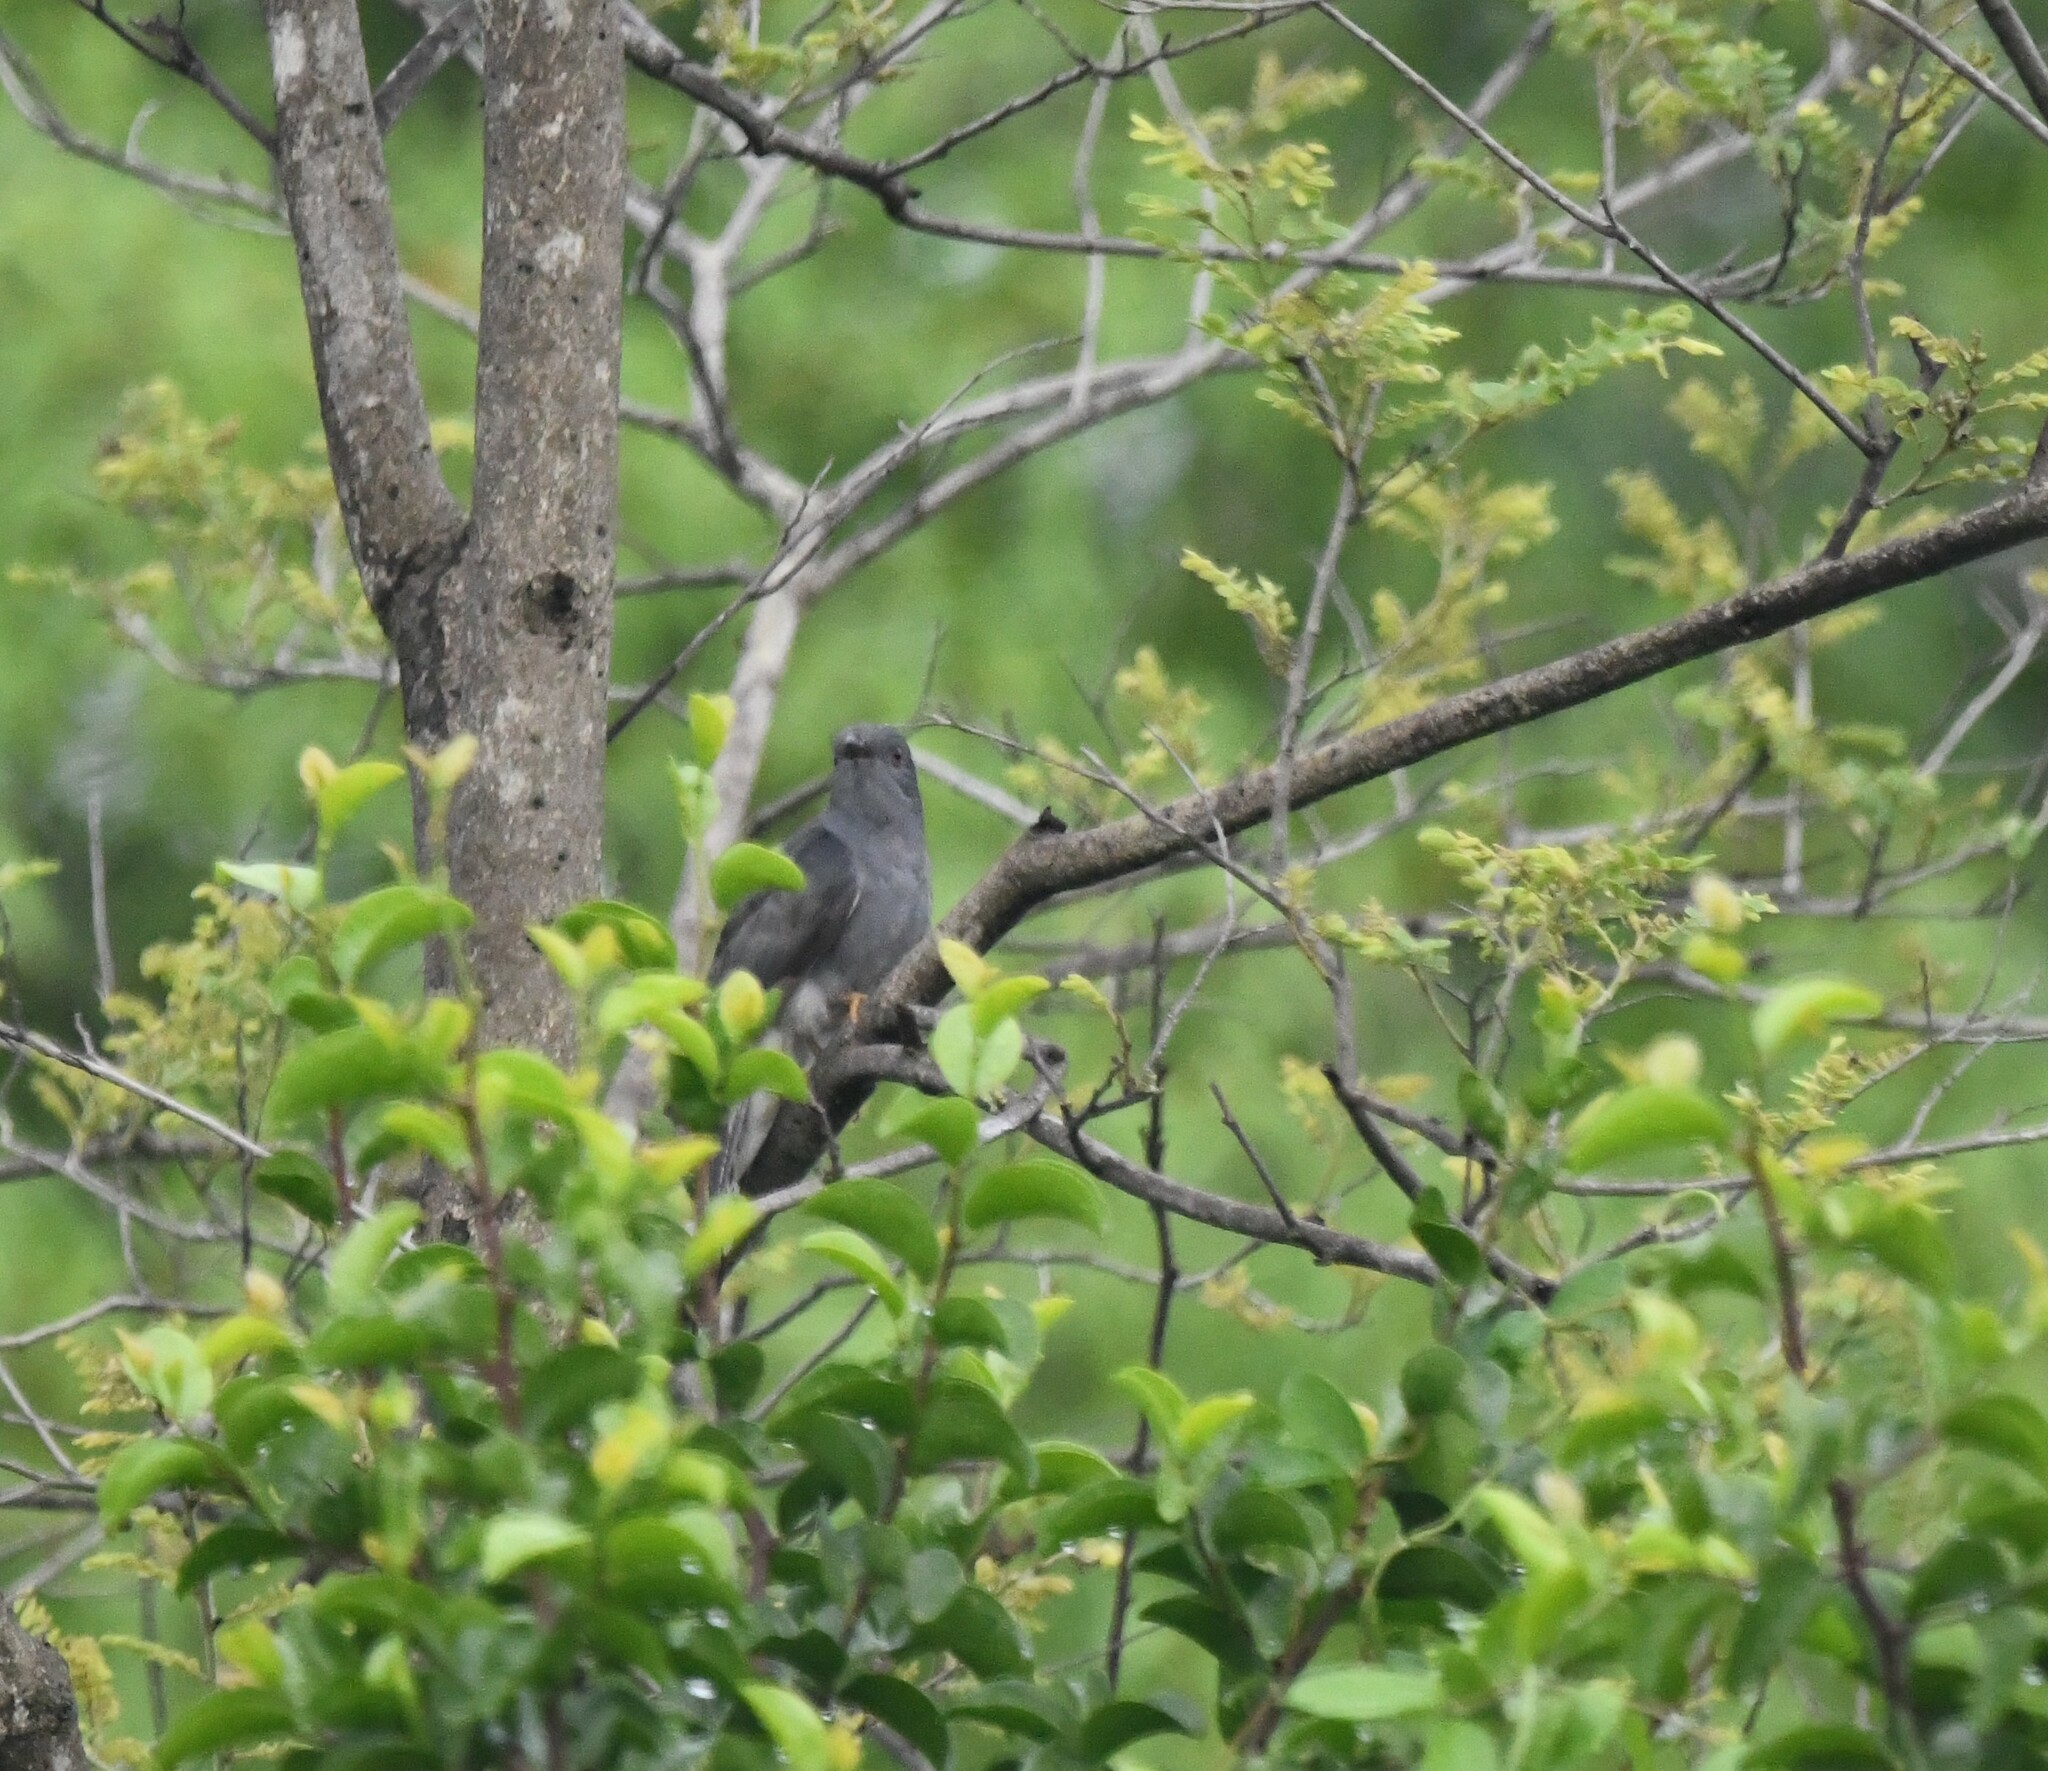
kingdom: Animalia
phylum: Chordata
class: Aves
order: Cuculiformes
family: Cuculidae
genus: Cacomantis
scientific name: Cacomantis passerinus
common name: Grey-bellied cuckoo
